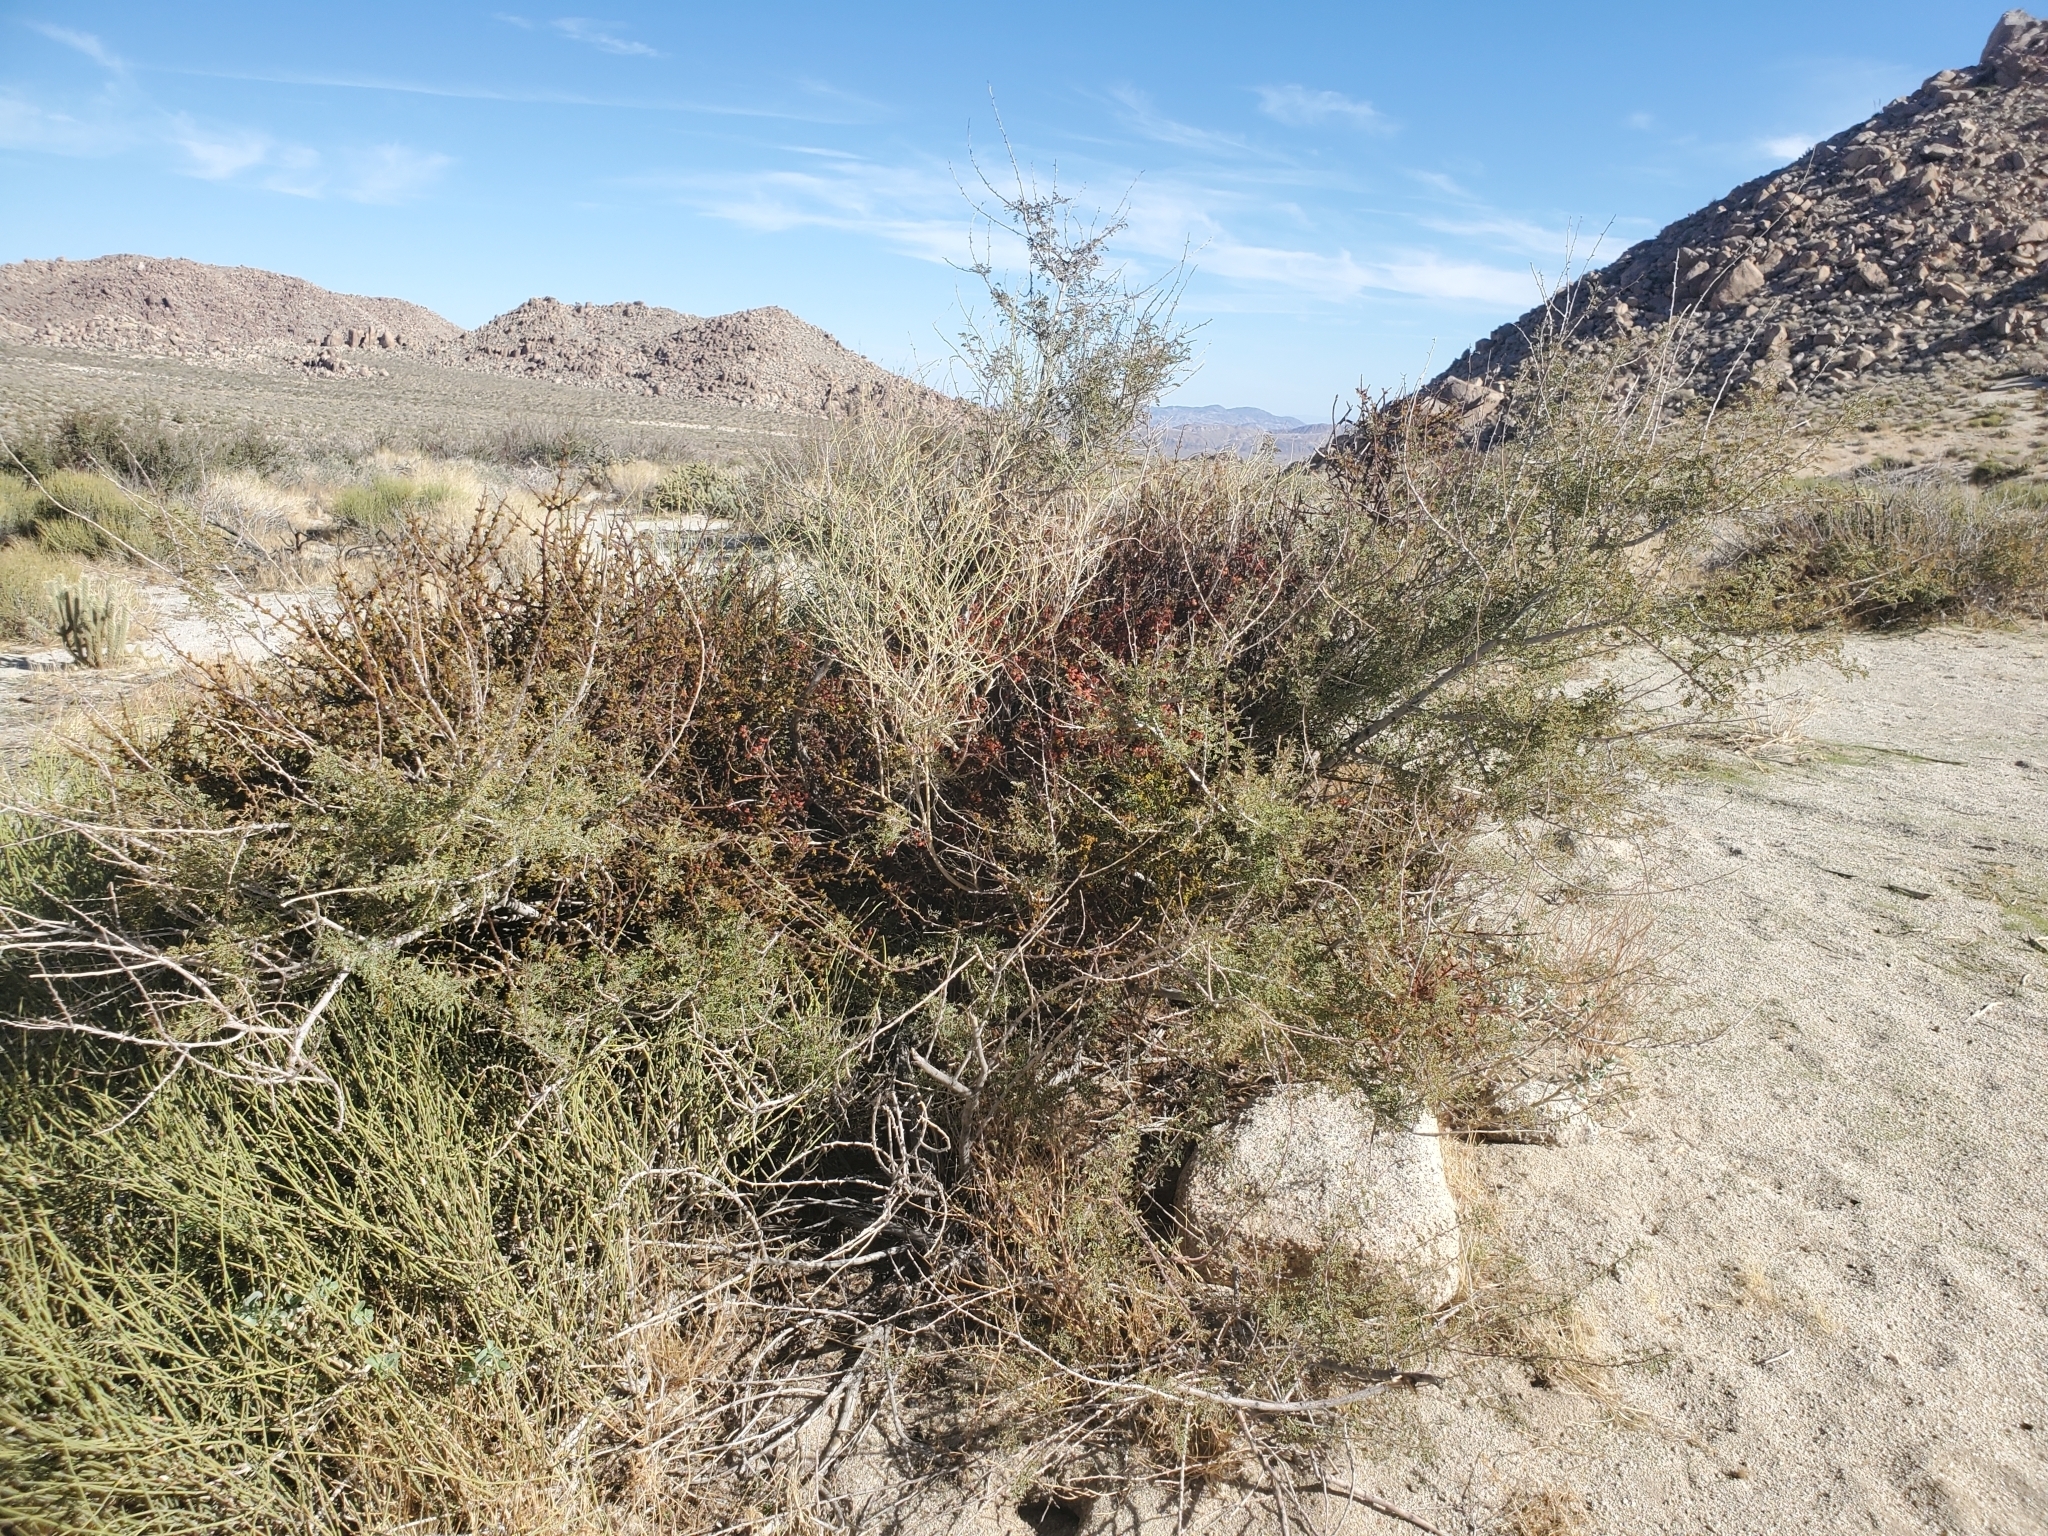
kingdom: Plantae
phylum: Tracheophyta
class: Magnoliopsida
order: Fabales
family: Fabaceae
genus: Senegalia
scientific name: Senegalia greggii
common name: Texas-mimosa
